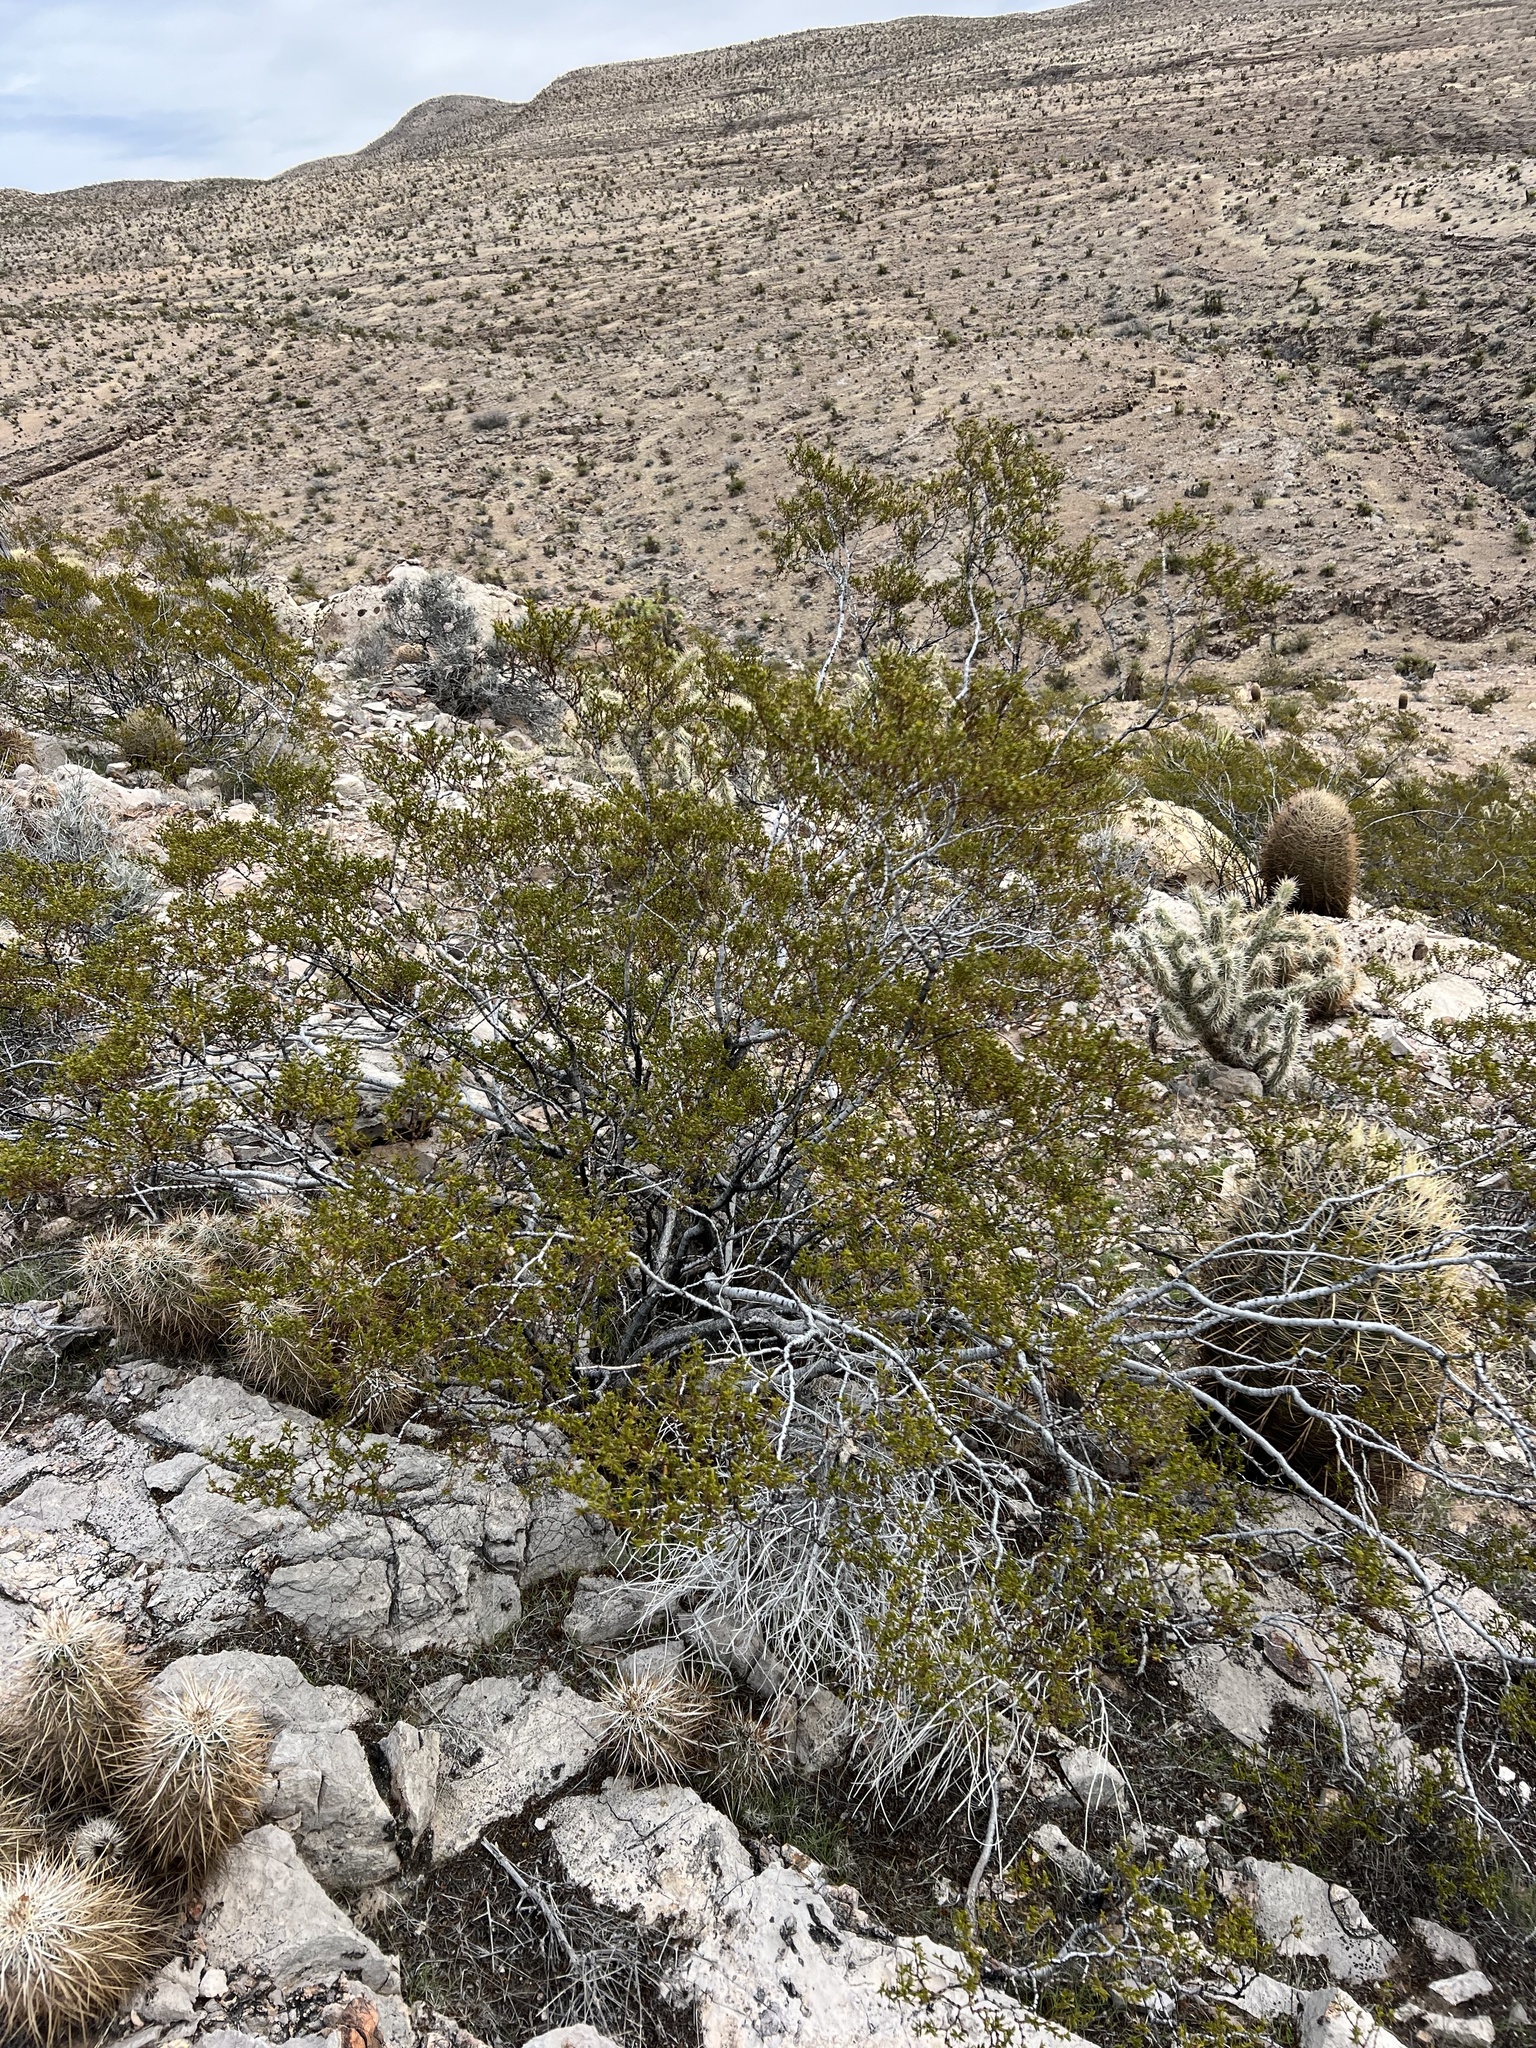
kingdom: Plantae
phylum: Tracheophyta
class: Magnoliopsida
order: Zygophyllales
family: Zygophyllaceae
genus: Larrea
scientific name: Larrea tridentata
